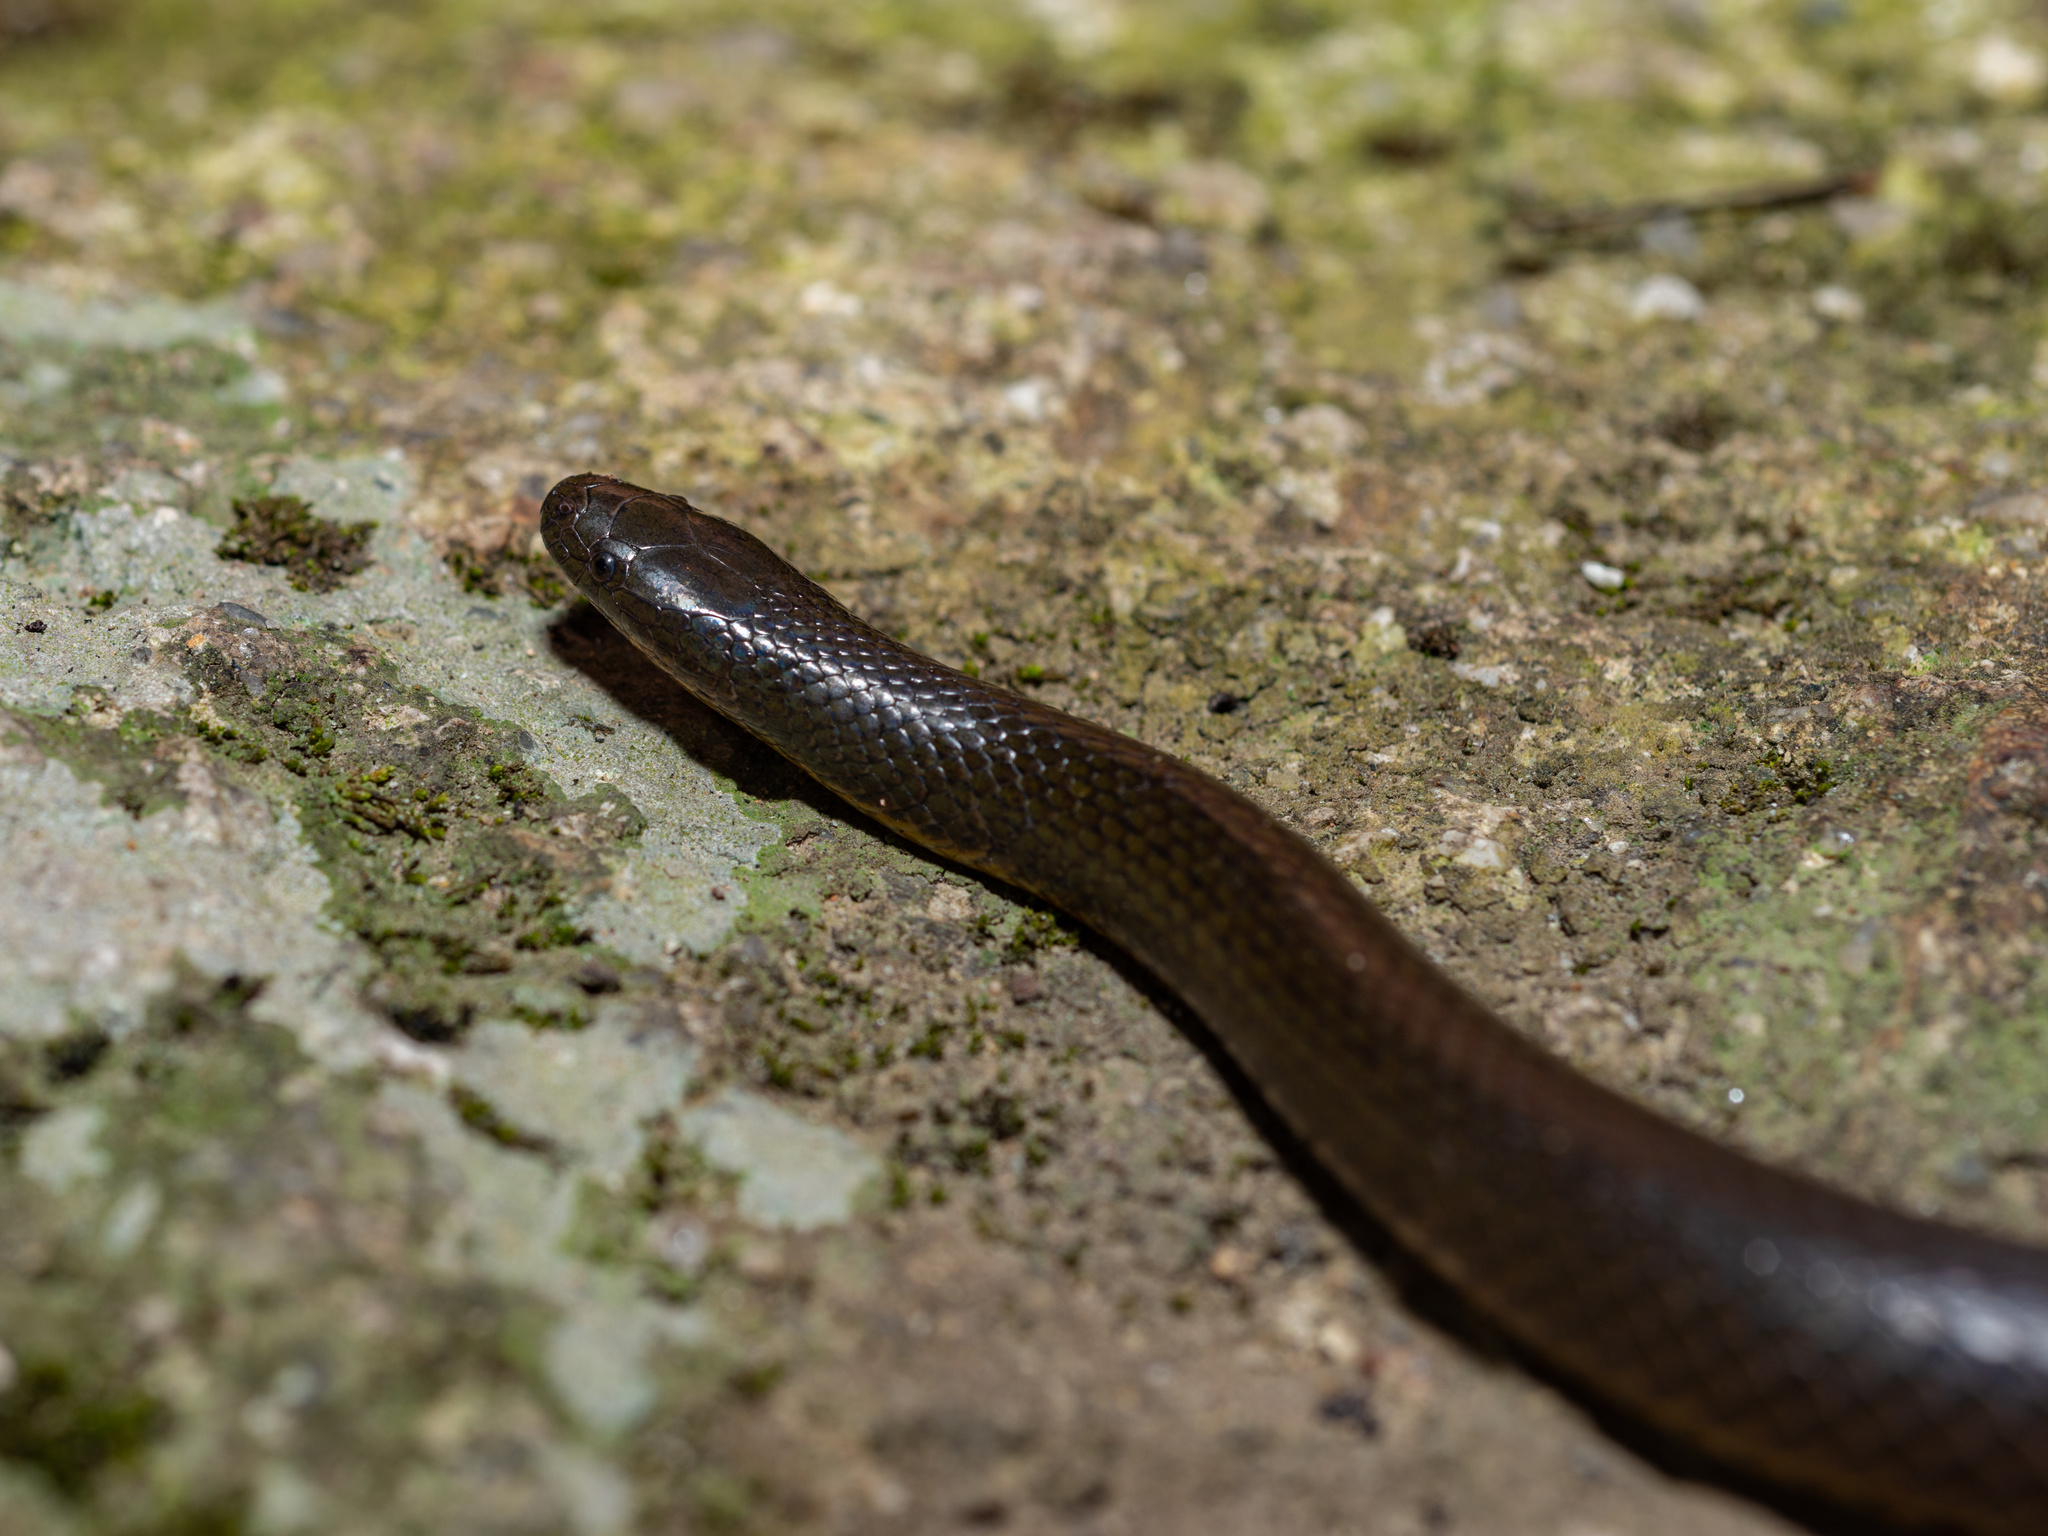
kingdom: Animalia
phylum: Chordata
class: Squamata
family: Colubridae
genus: Opisthotropis
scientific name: Opisthotropis andersonii
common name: Anderson's mountain keelback
